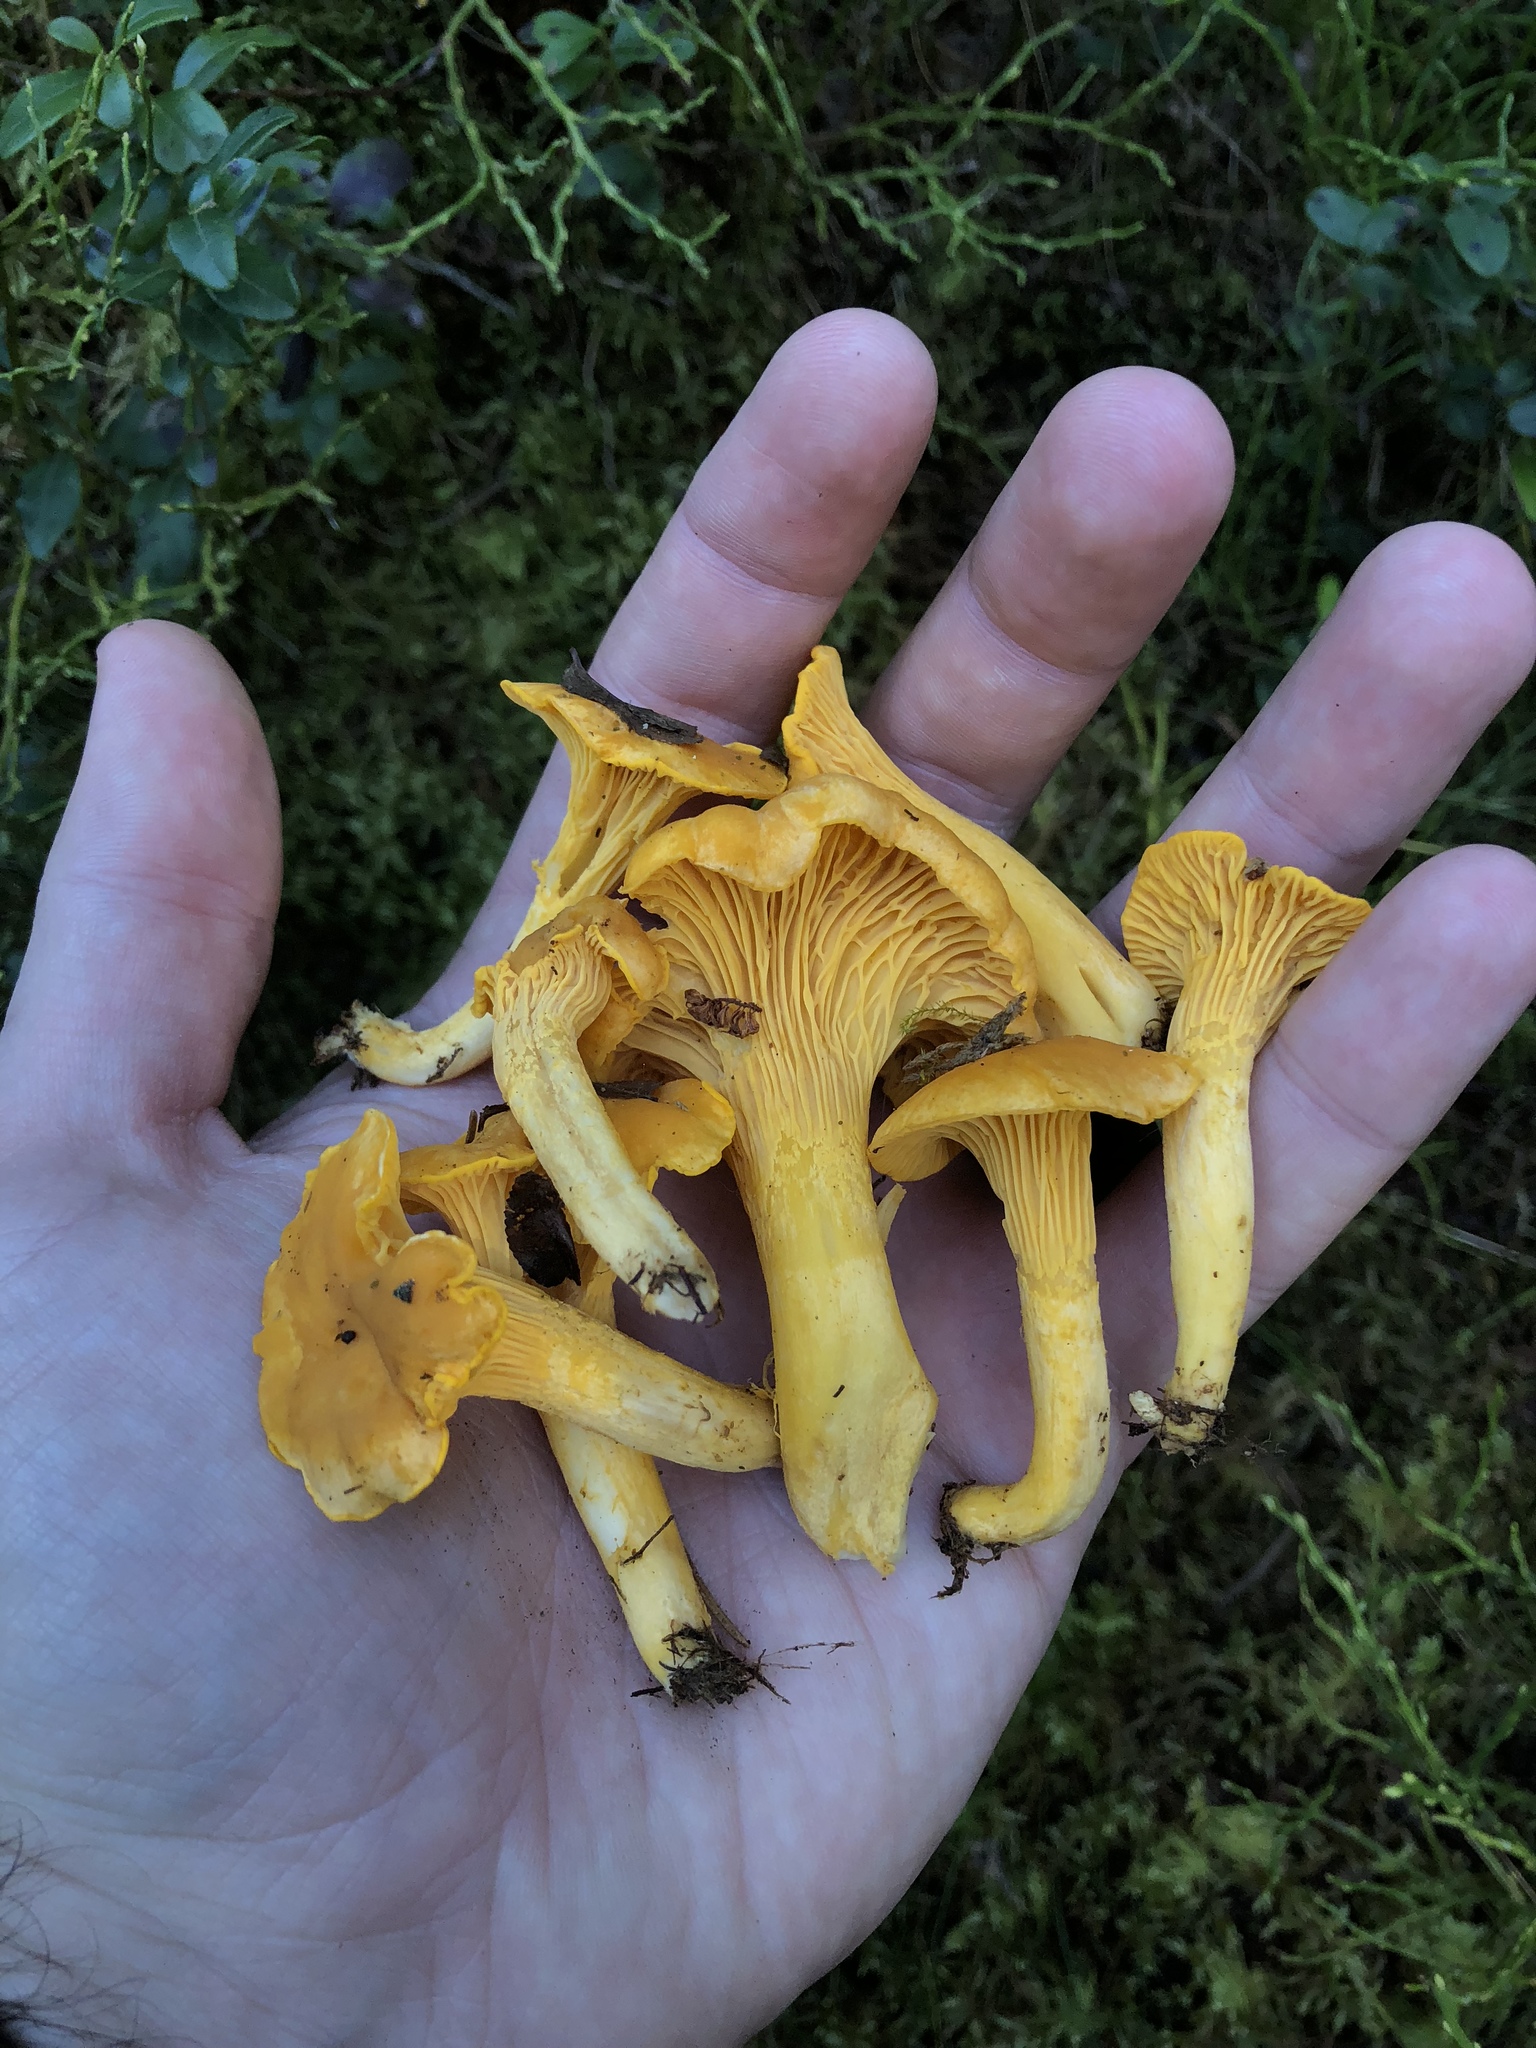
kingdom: Fungi
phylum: Basidiomycota
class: Agaricomycetes
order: Cantharellales
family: Hydnaceae
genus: Cantharellus
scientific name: Cantharellus cibarius
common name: Chanterelle
